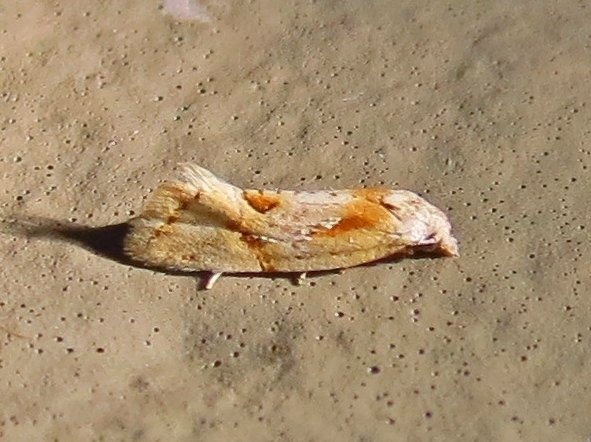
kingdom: Animalia
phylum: Arthropoda
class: Insecta
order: Lepidoptera
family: Tortricidae
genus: Aethes
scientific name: Aethes seriatana
